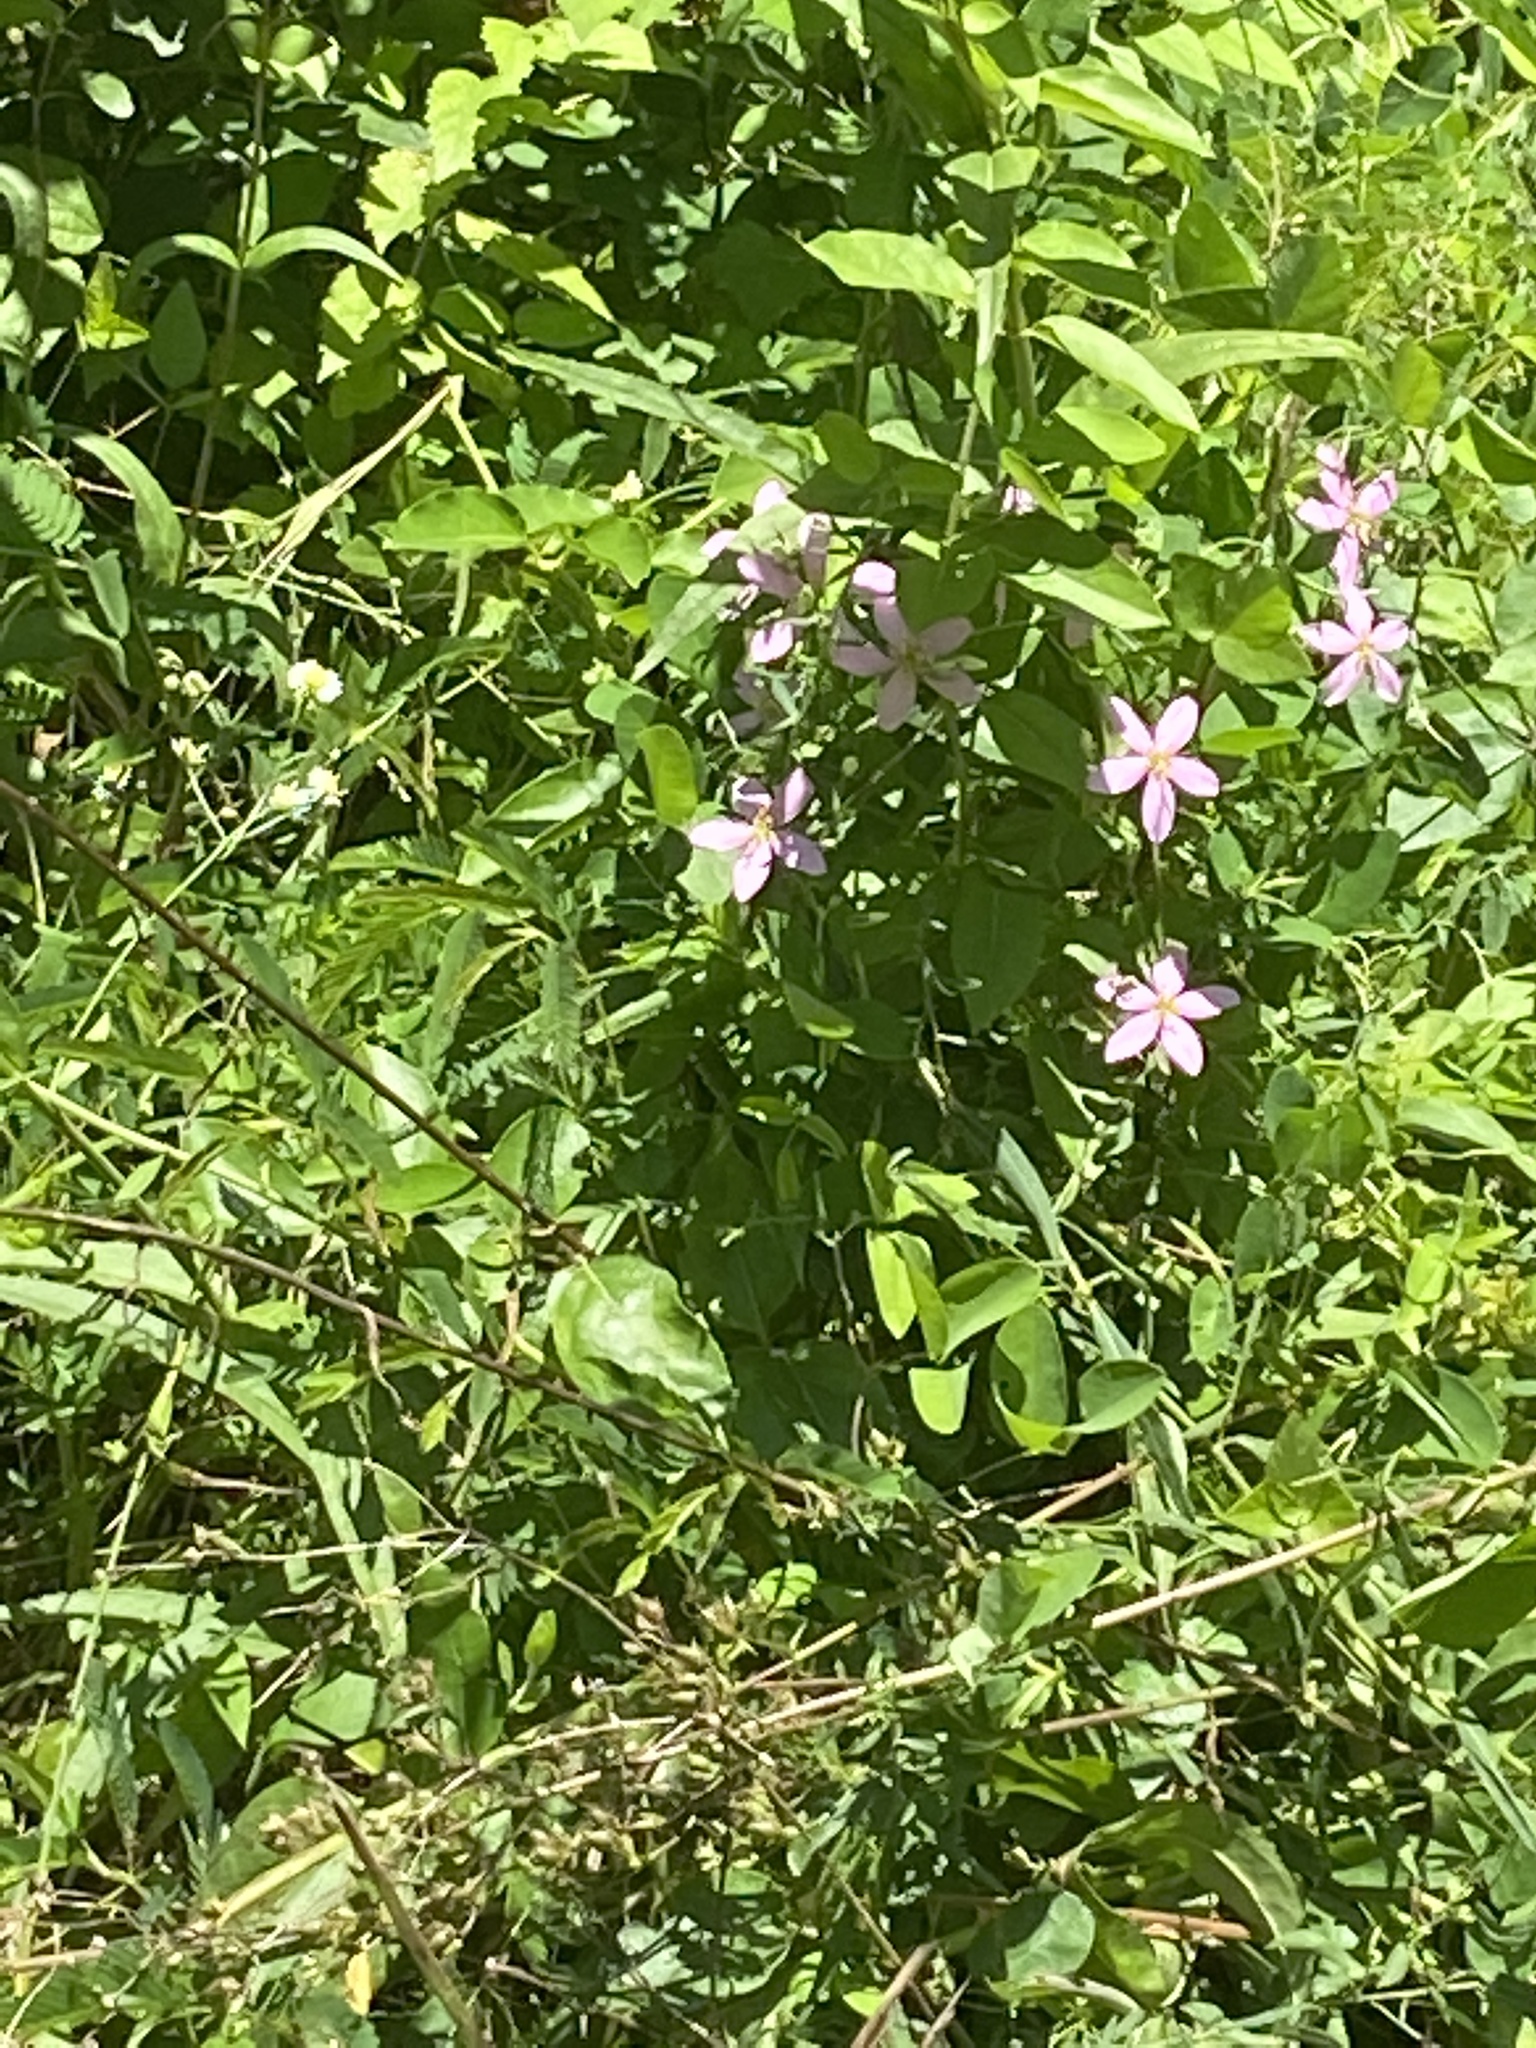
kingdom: Plantae
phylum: Tracheophyta
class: Magnoliopsida
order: Gentianales
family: Gentianaceae
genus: Sabatia
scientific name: Sabatia angularis
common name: Rose-pink
